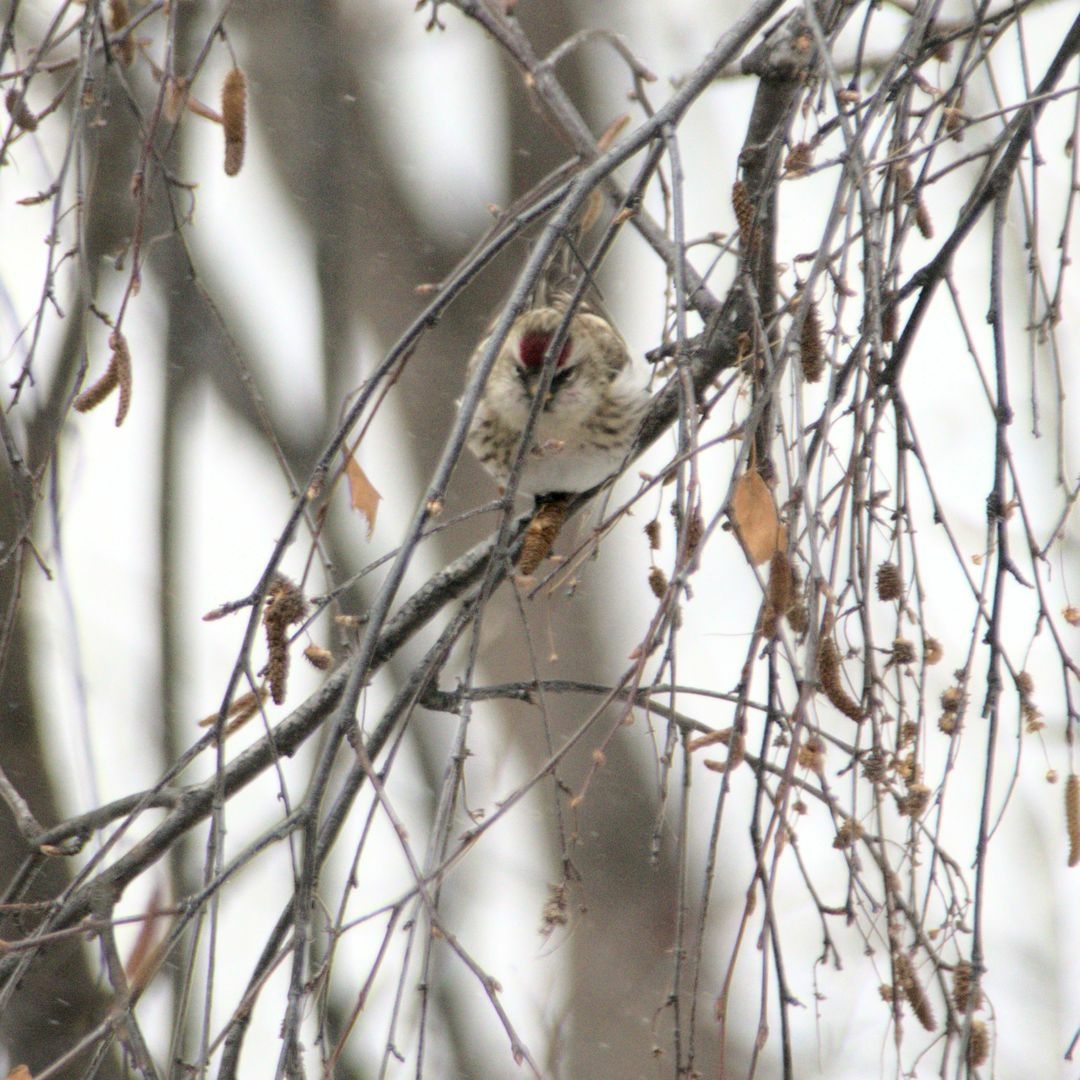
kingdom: Animalia
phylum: Chordata
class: Aves
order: Passeriformes
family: Fringillidae
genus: Acanthis
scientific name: Acanthis flammea
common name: Common redpoll
